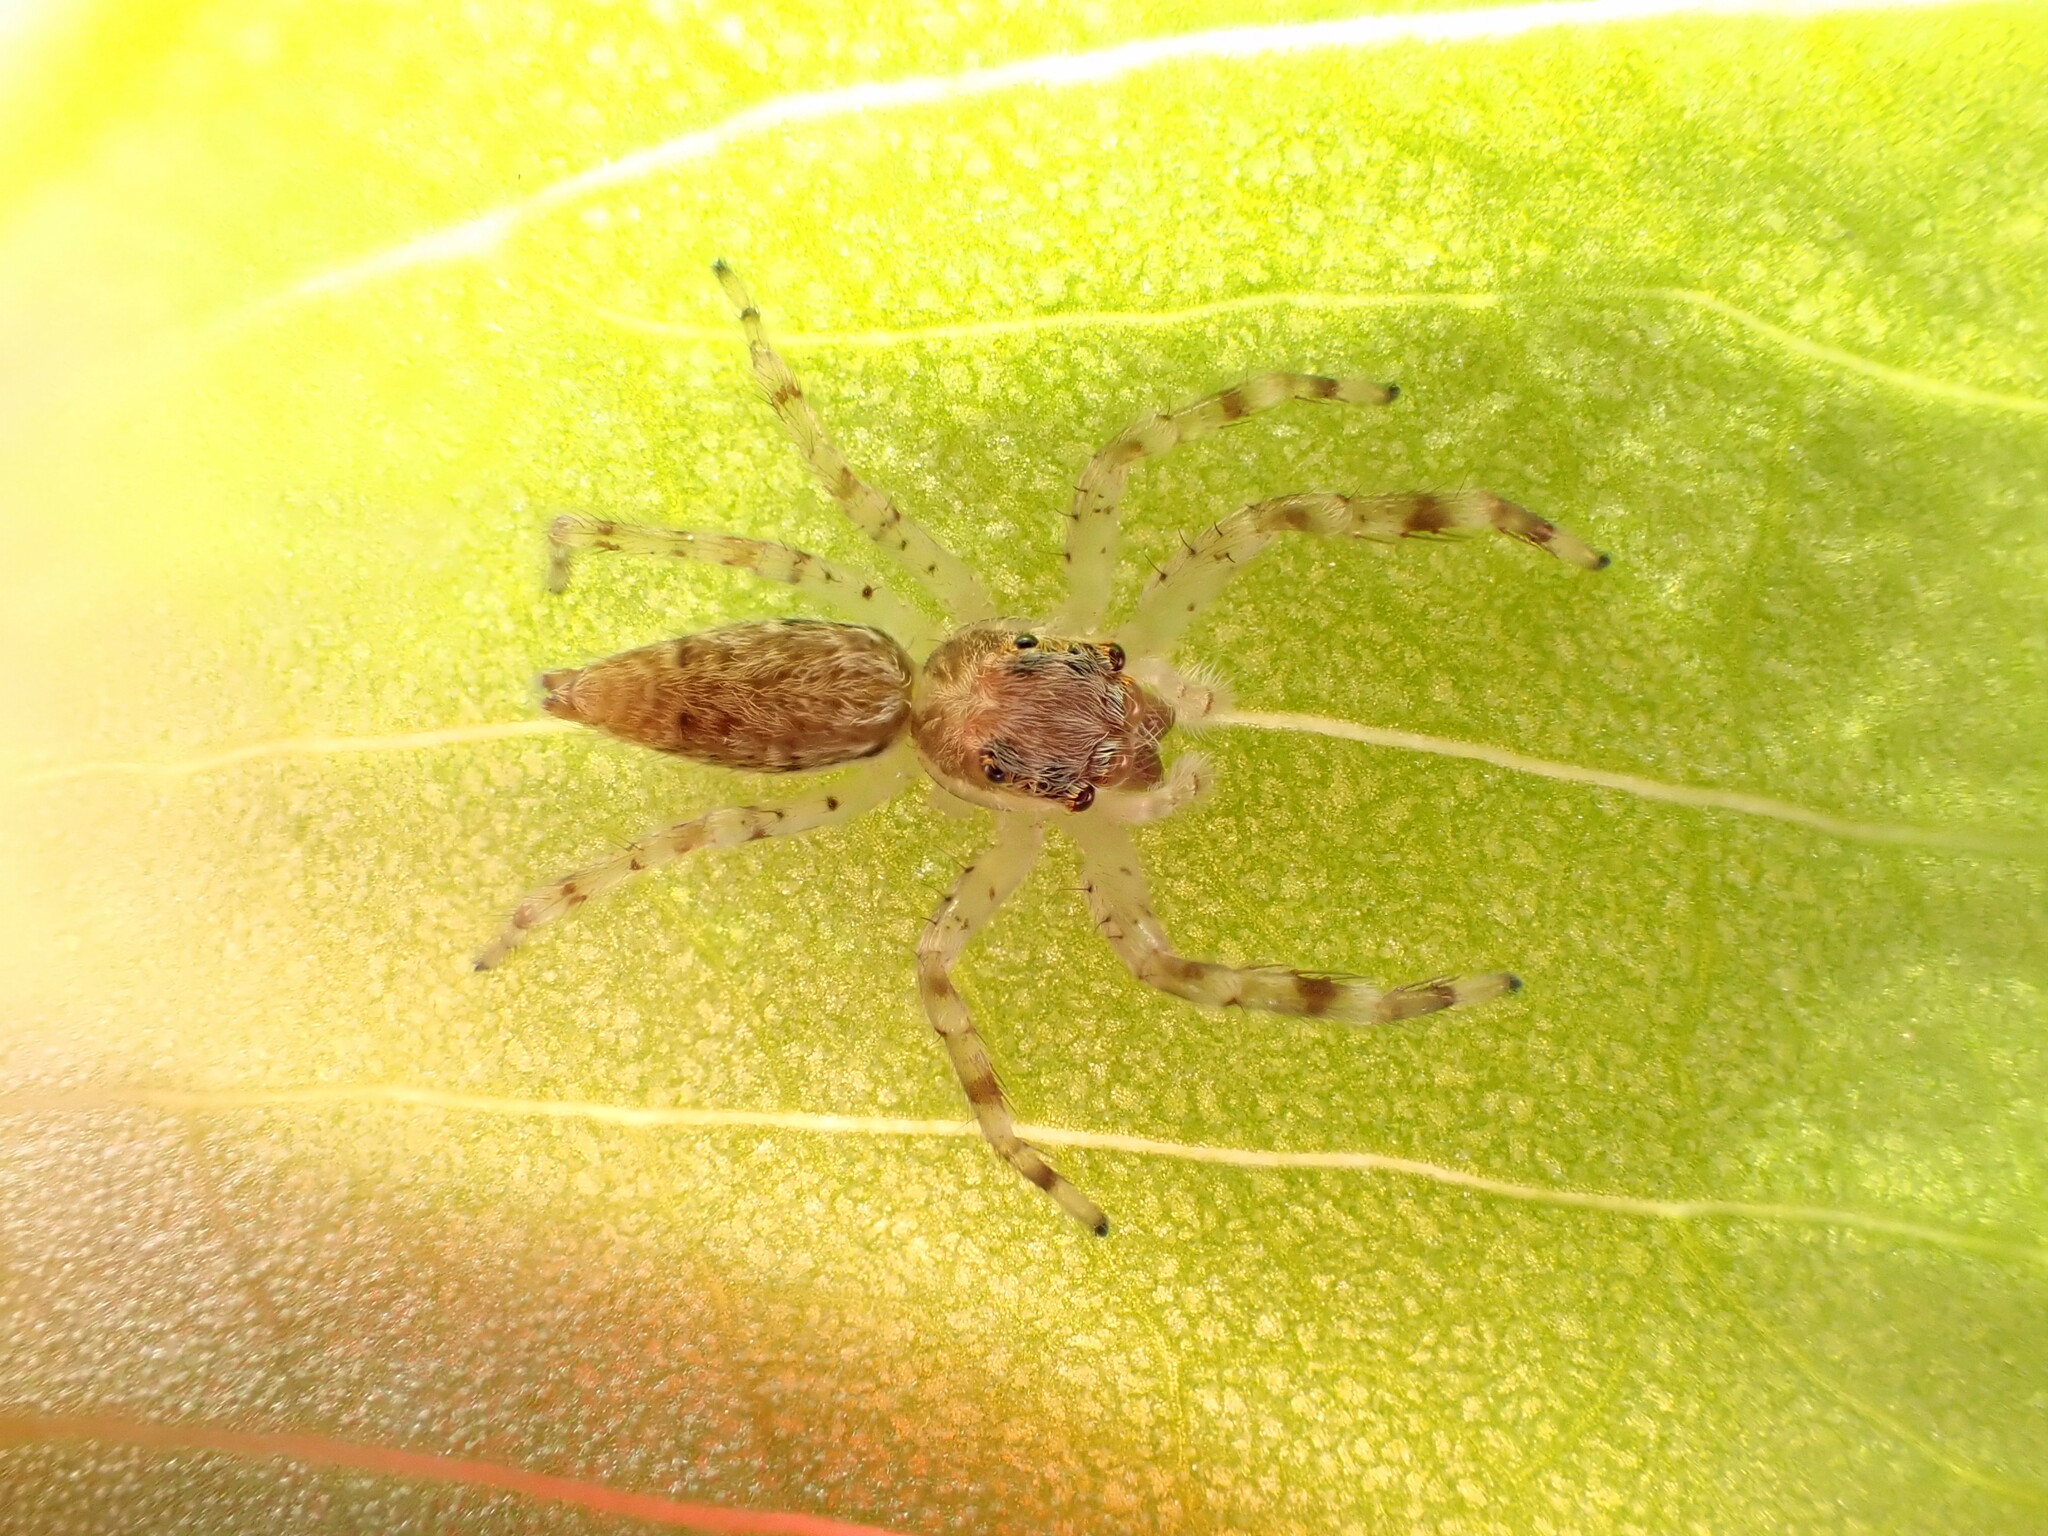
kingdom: Animalia
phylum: Arthropoda
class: Arachnida
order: Araneae
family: Salticidae
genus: Helpis
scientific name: Helpis minitabunda
